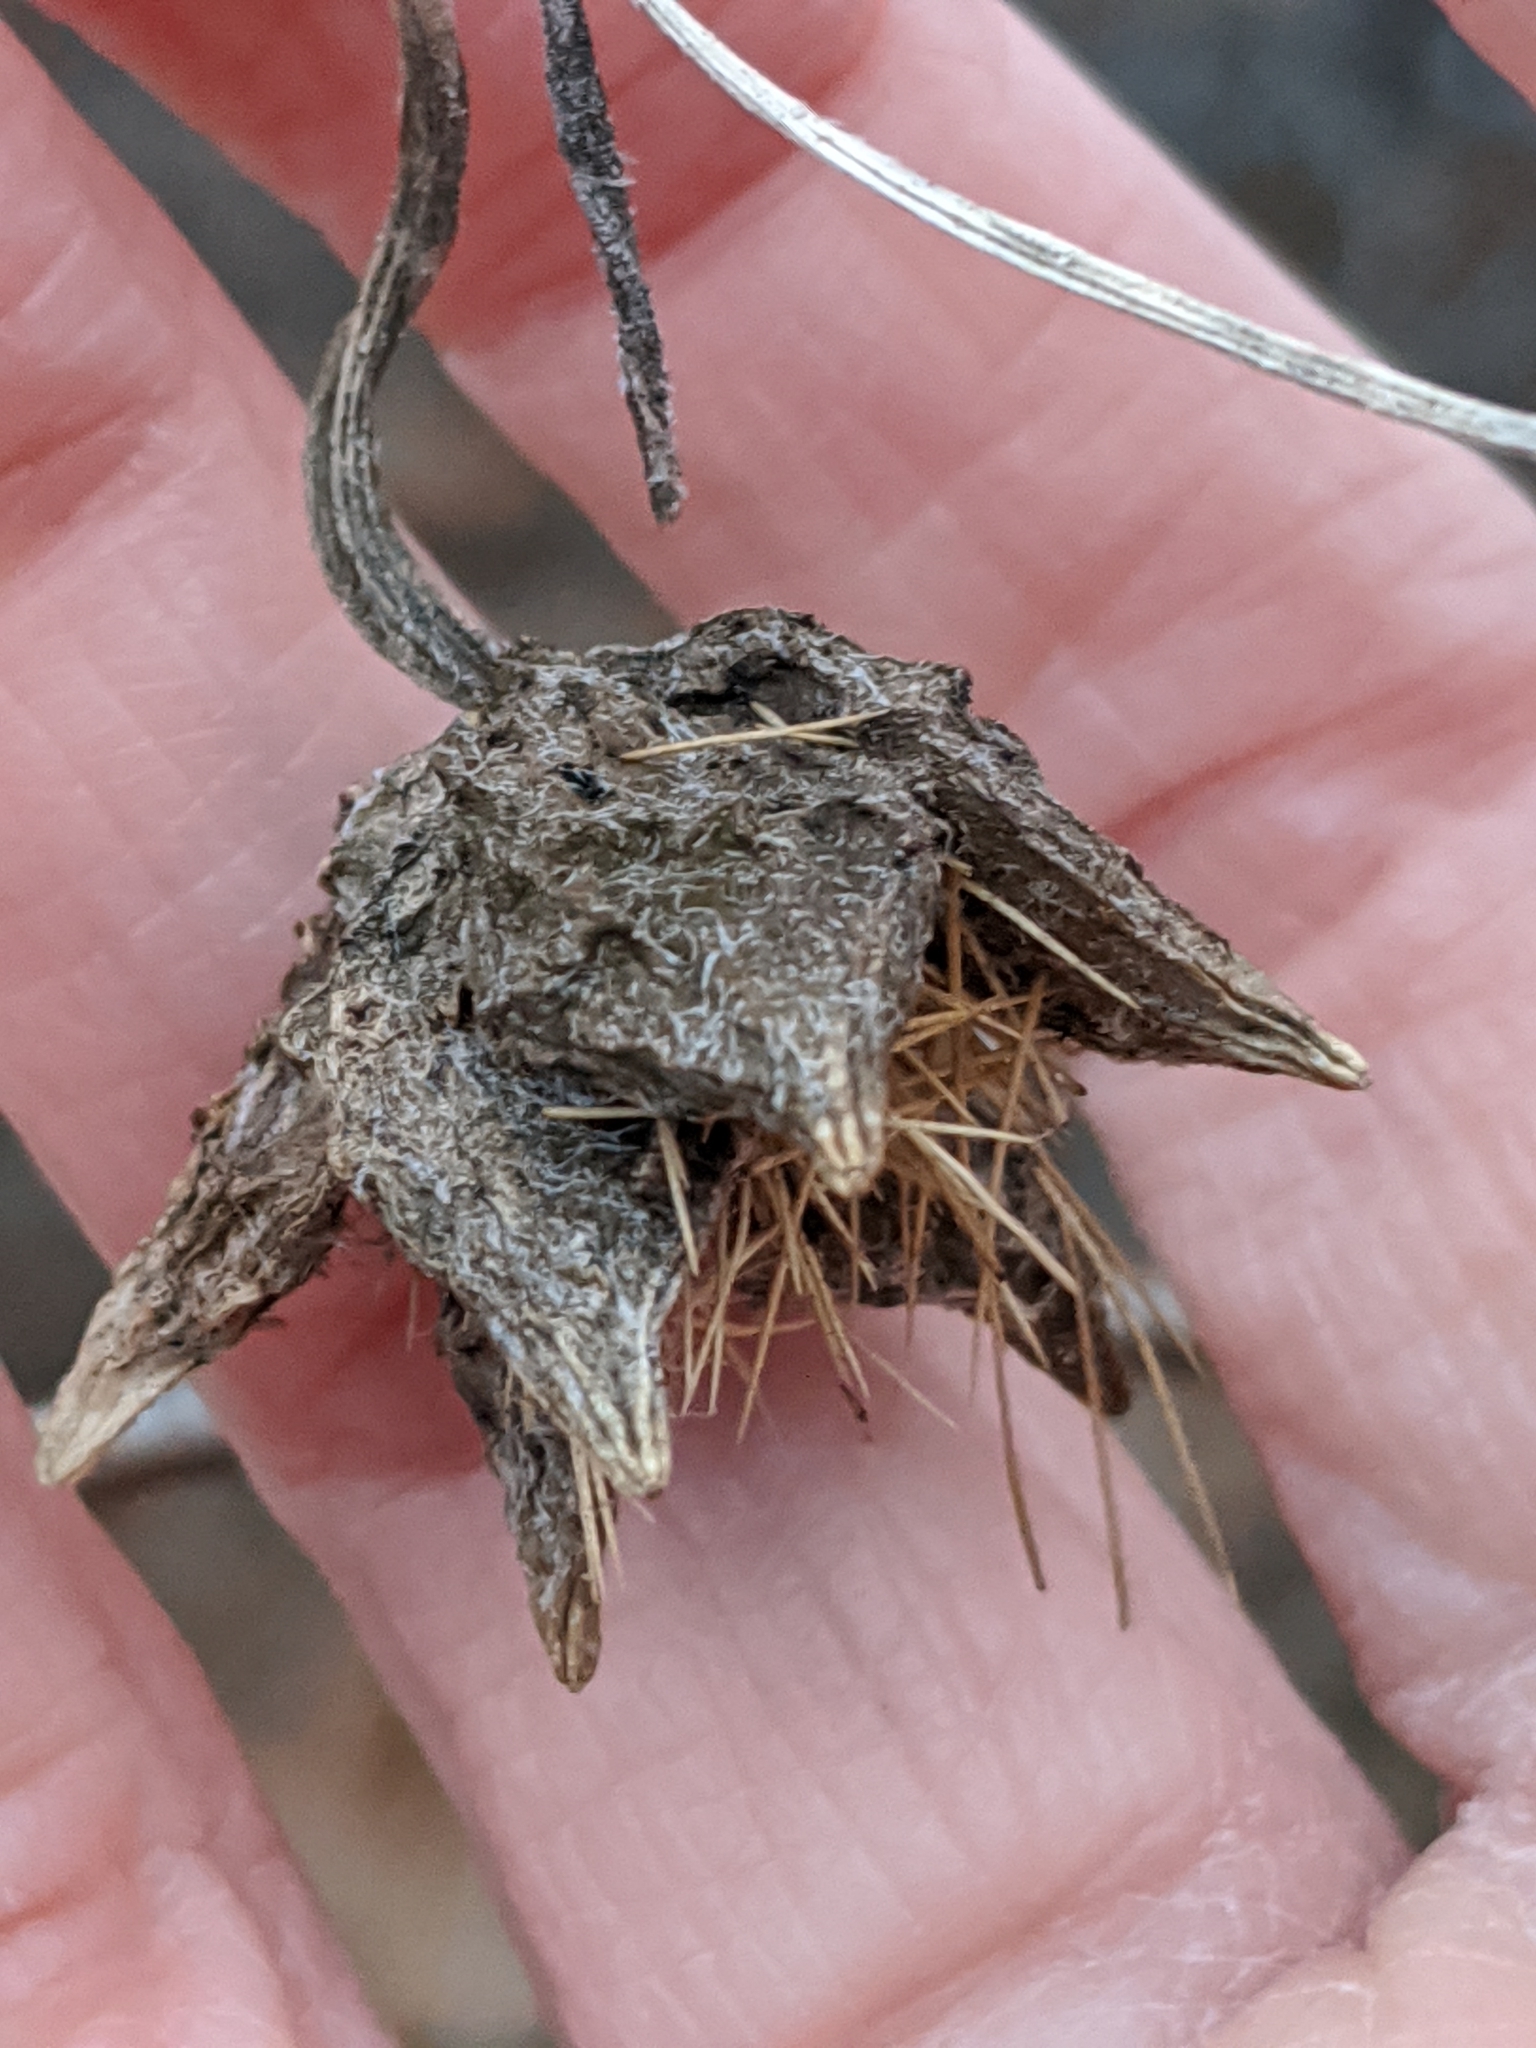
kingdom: Plantae
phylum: Tracheophyta
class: Magnoliopsida
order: Cucurbitales
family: Cucurbitaceae
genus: Sicyos
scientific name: Sicyos angulatus
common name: Angled burr cucumber
